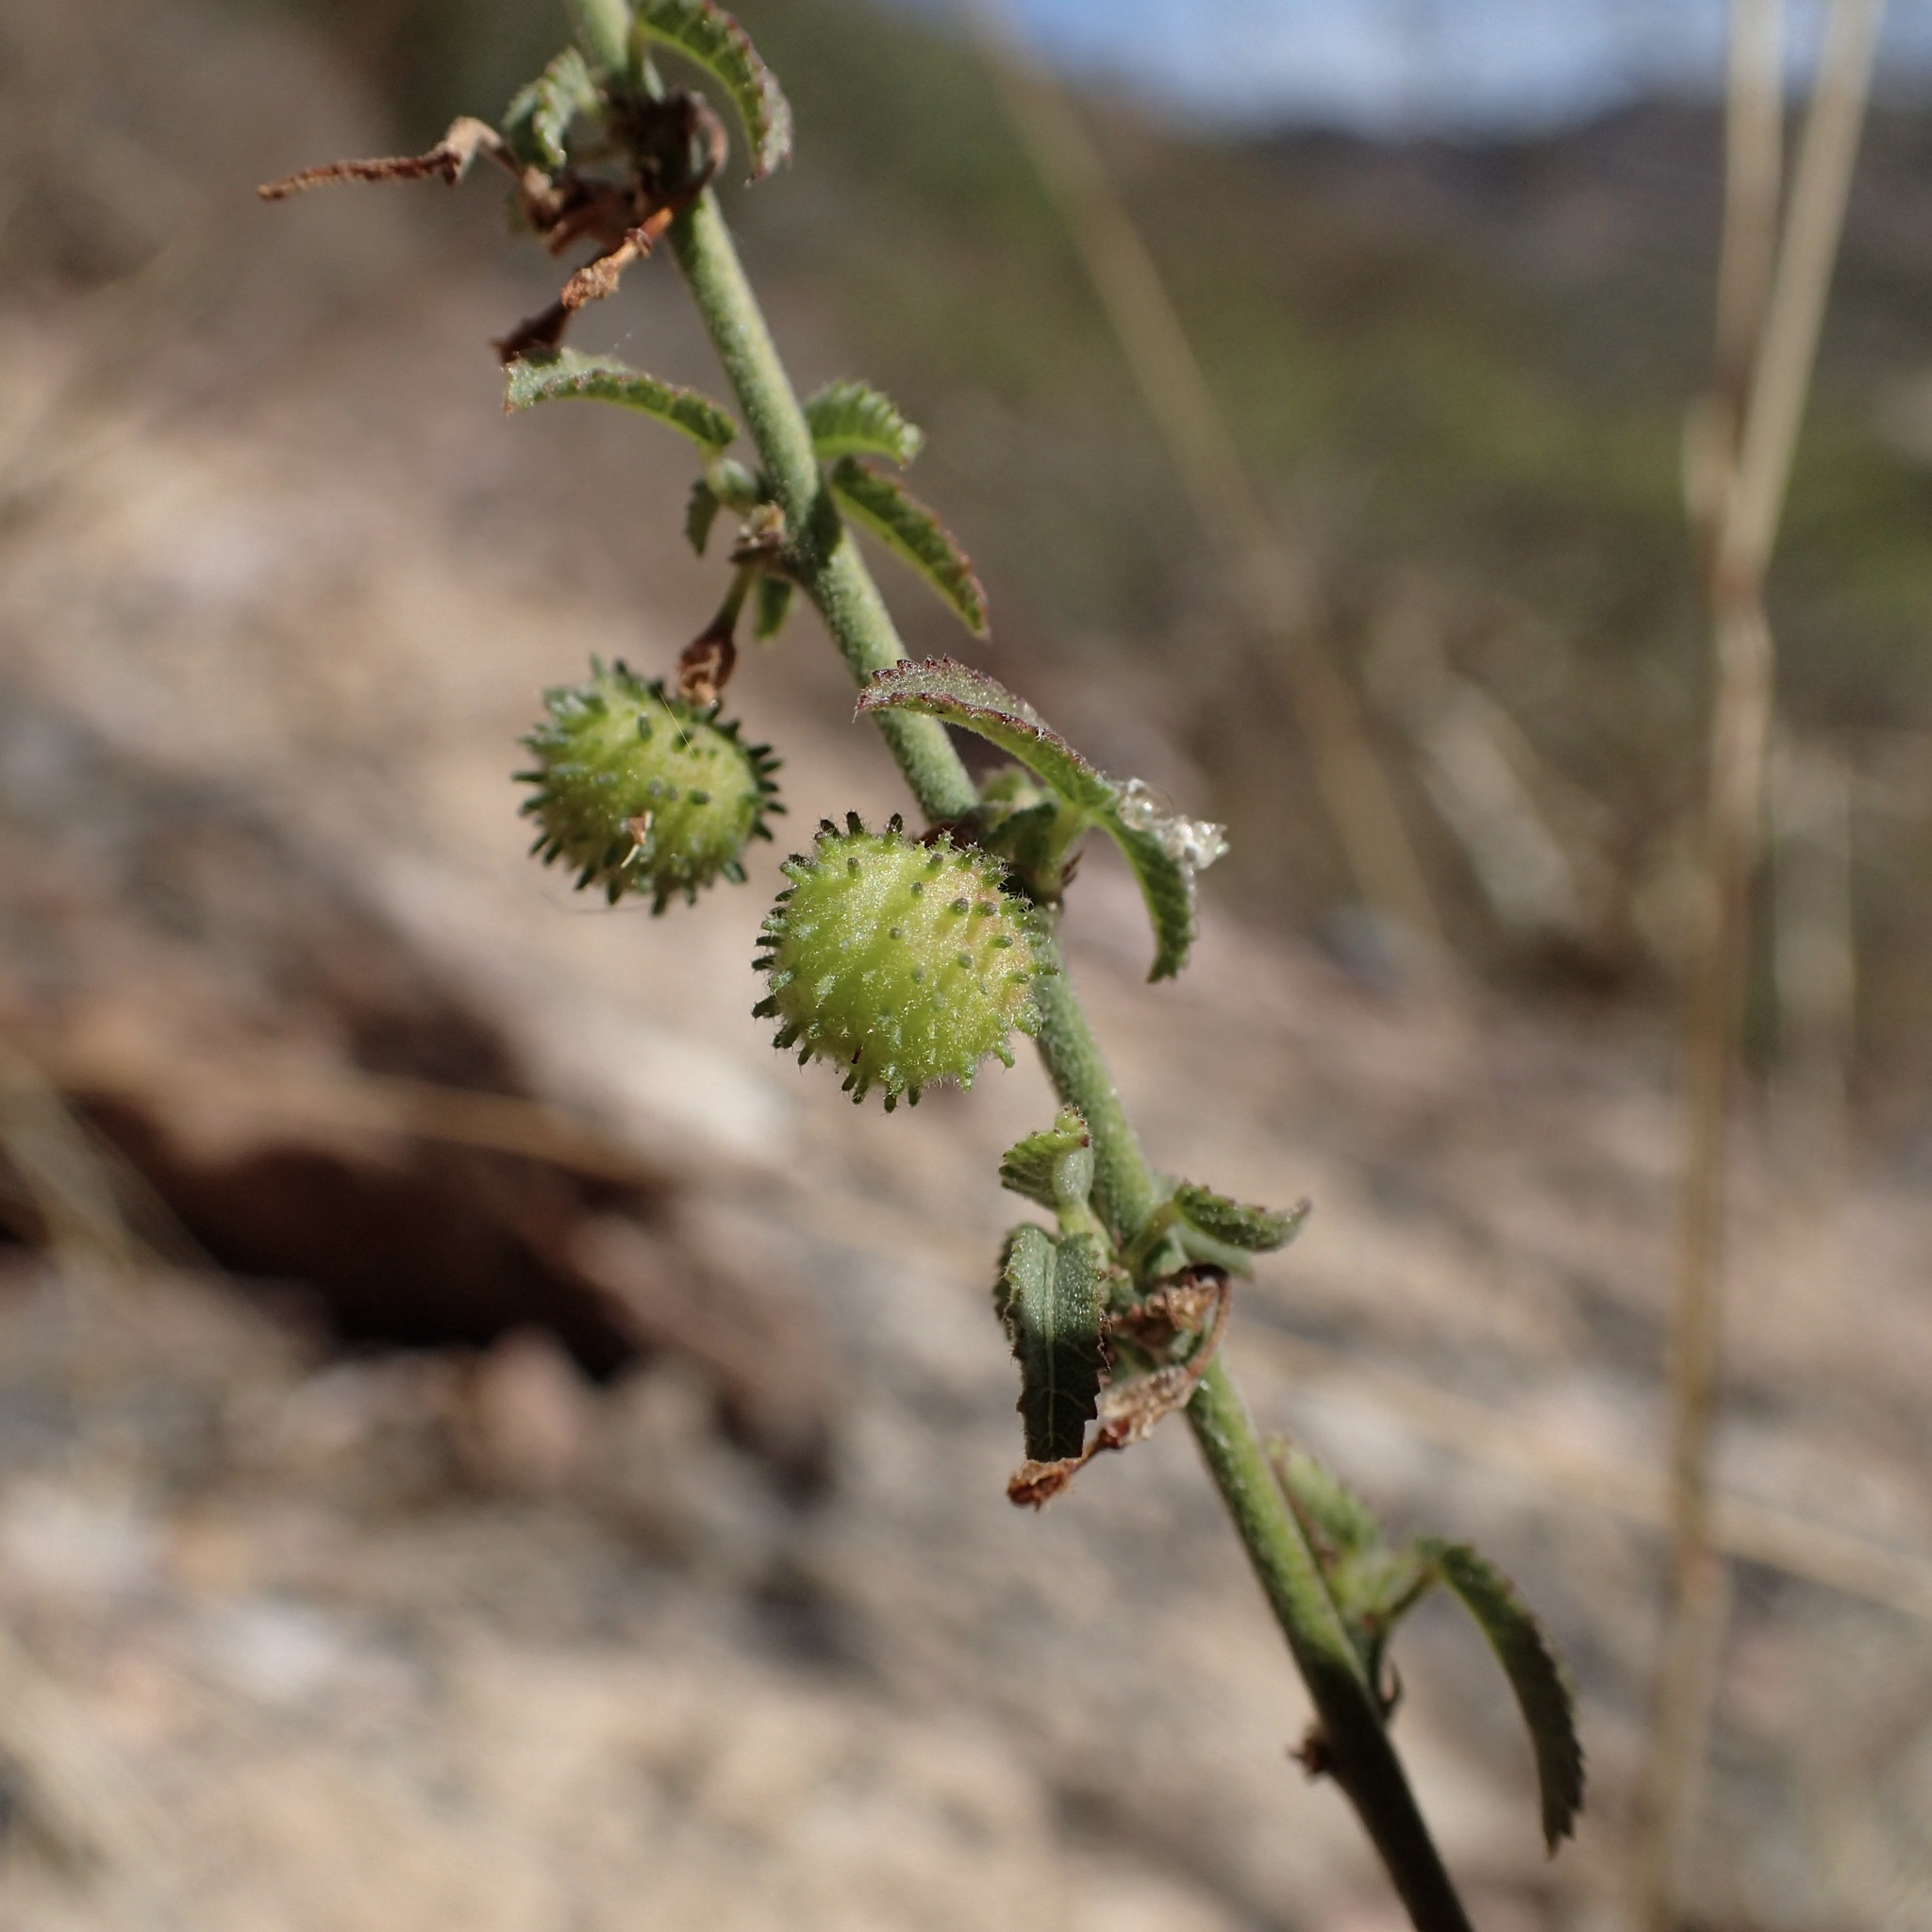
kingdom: Plantae
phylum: Tracheophyta
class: Magnoliopsida
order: Malvales
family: Malvaceae
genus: Ayenia
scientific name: Ayenia filiformis
